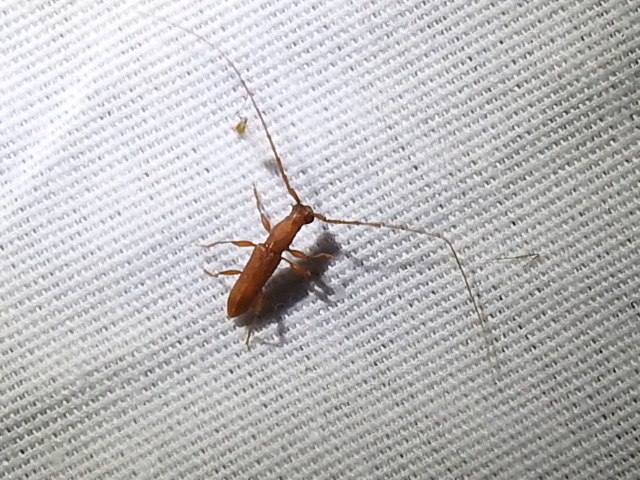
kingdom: Animalia
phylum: Arthropoda
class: Insecta
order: Coleoptera
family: Cerambycidae
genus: Hypexilis
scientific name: Hypexilis pallida
